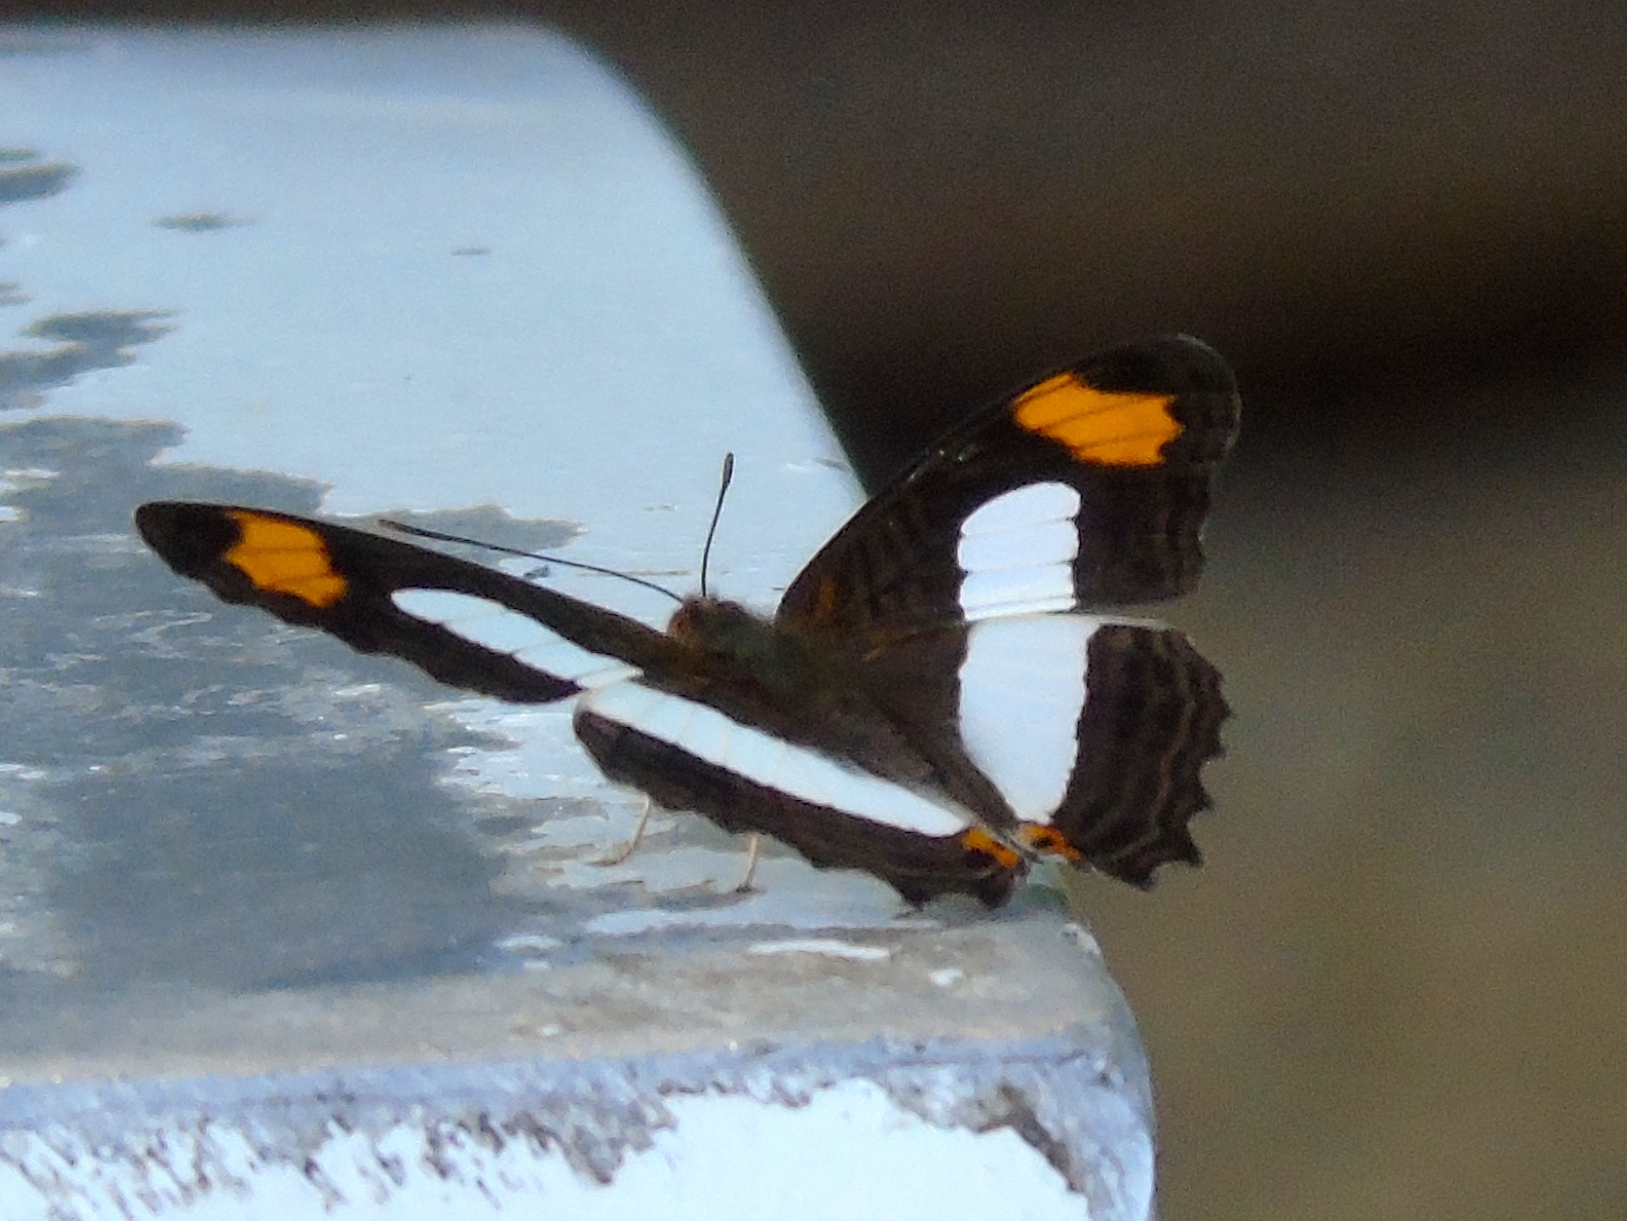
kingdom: Animalia
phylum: Arthropoda
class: Insecta
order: Lepidoptera
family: Nymphalidae
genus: Limenitis
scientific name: Limenitis iphiclus
